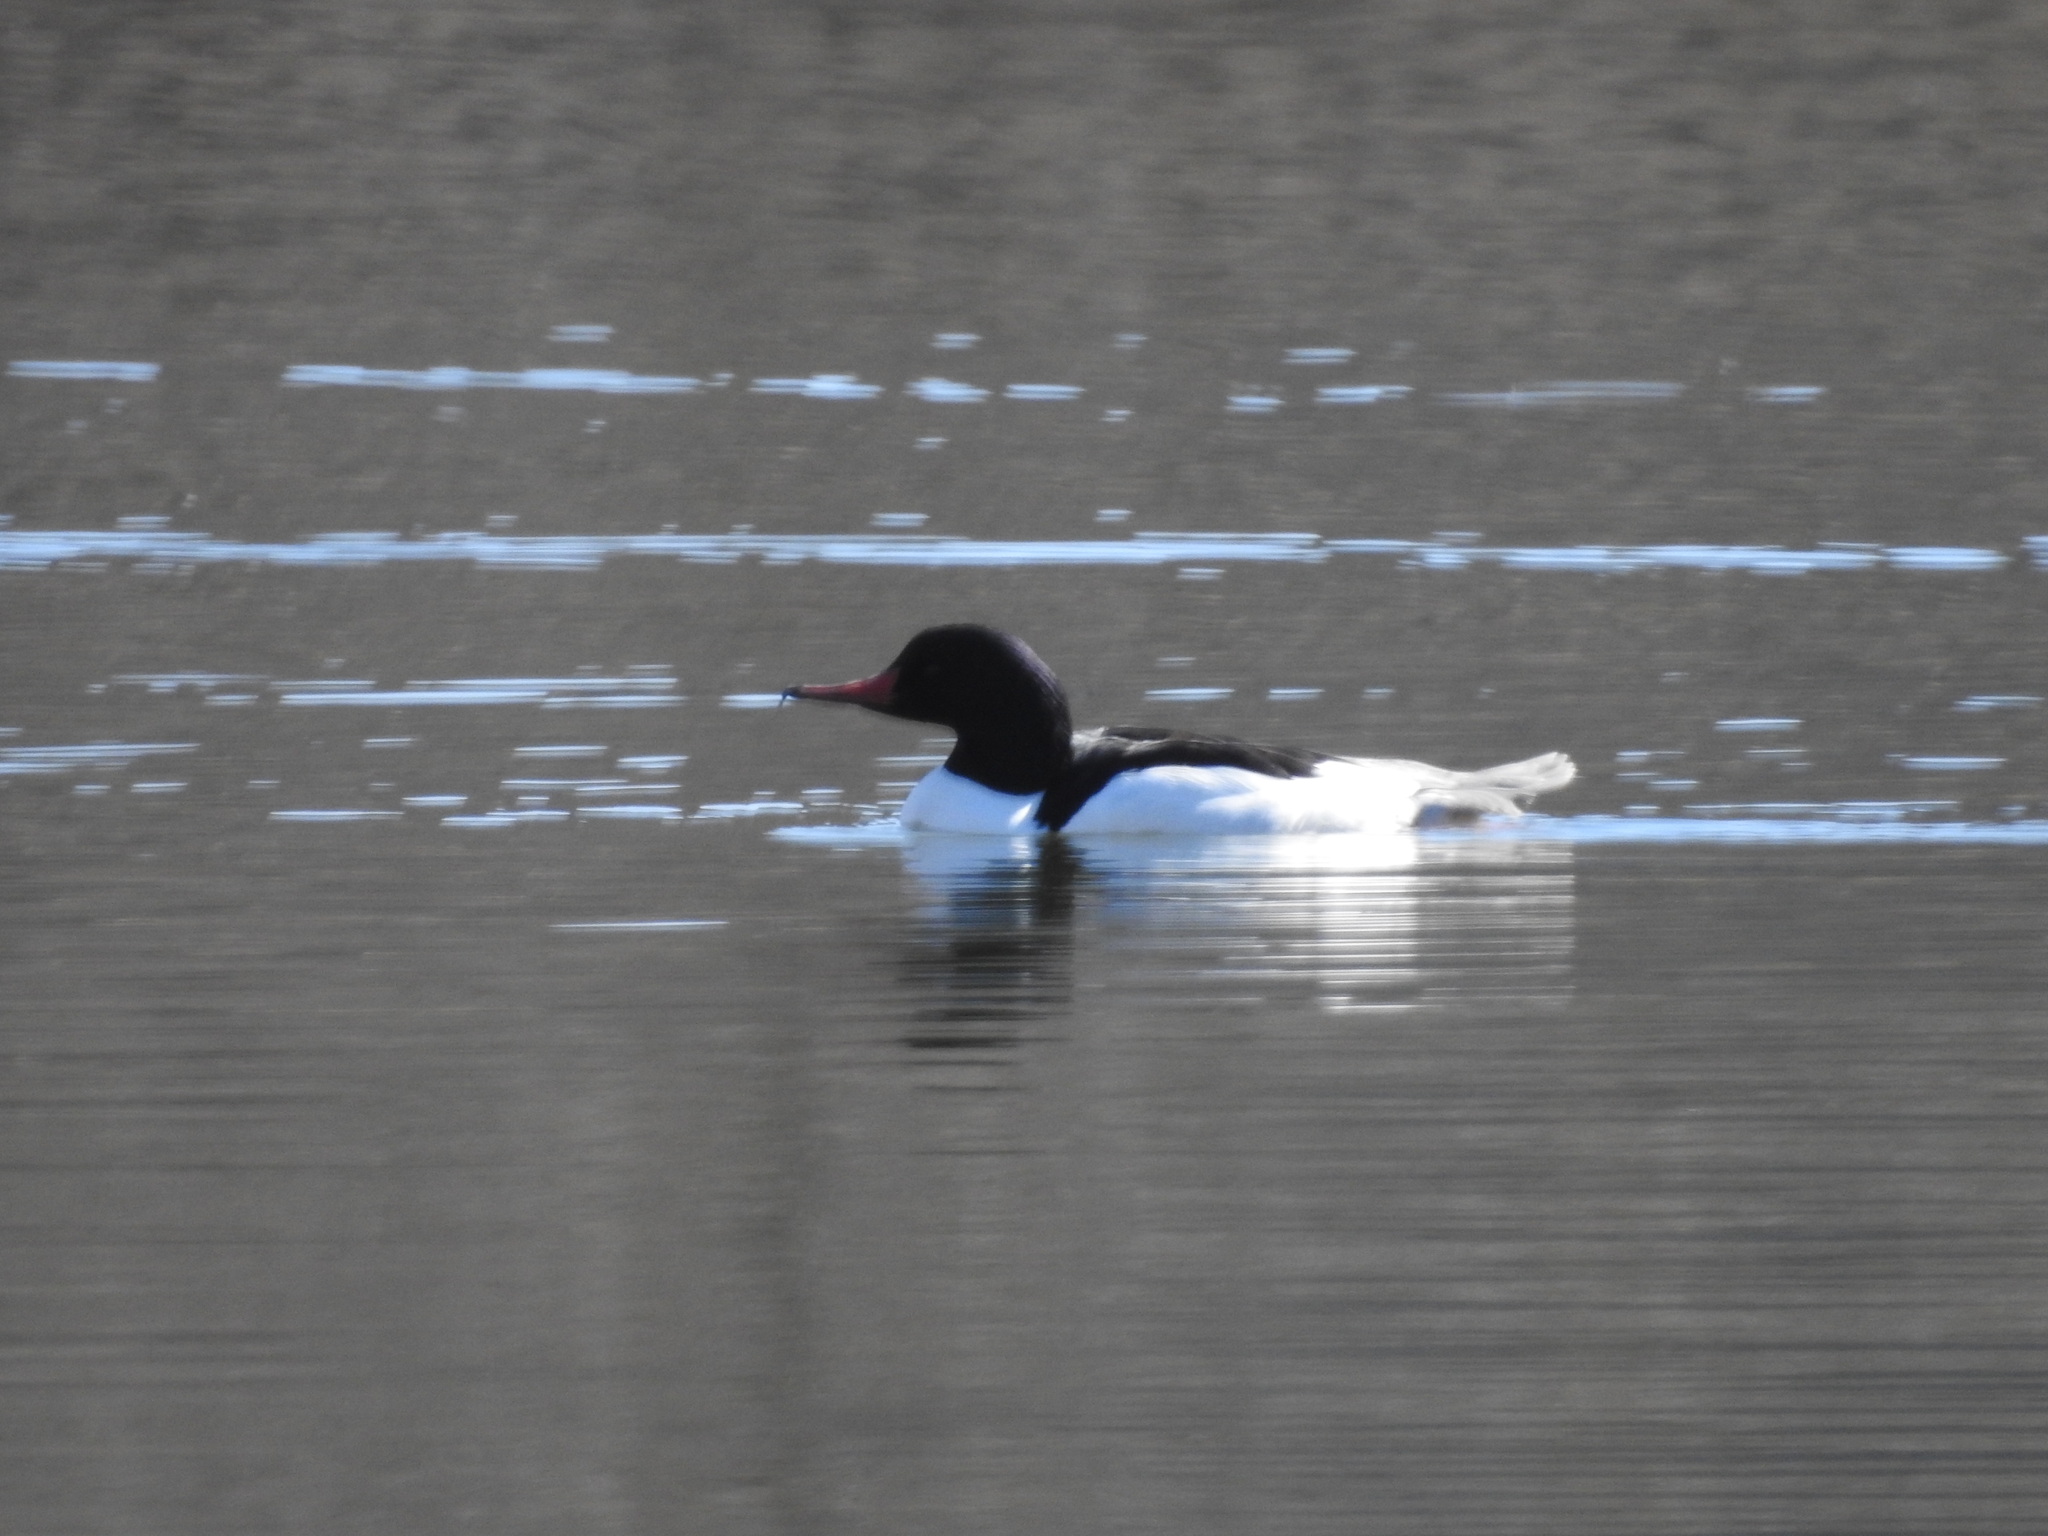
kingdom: Animalia
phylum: Chordata
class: Aves
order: Anseriformes
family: Anatidae
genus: Mergus
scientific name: Mergus merganser
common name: Common merganser
